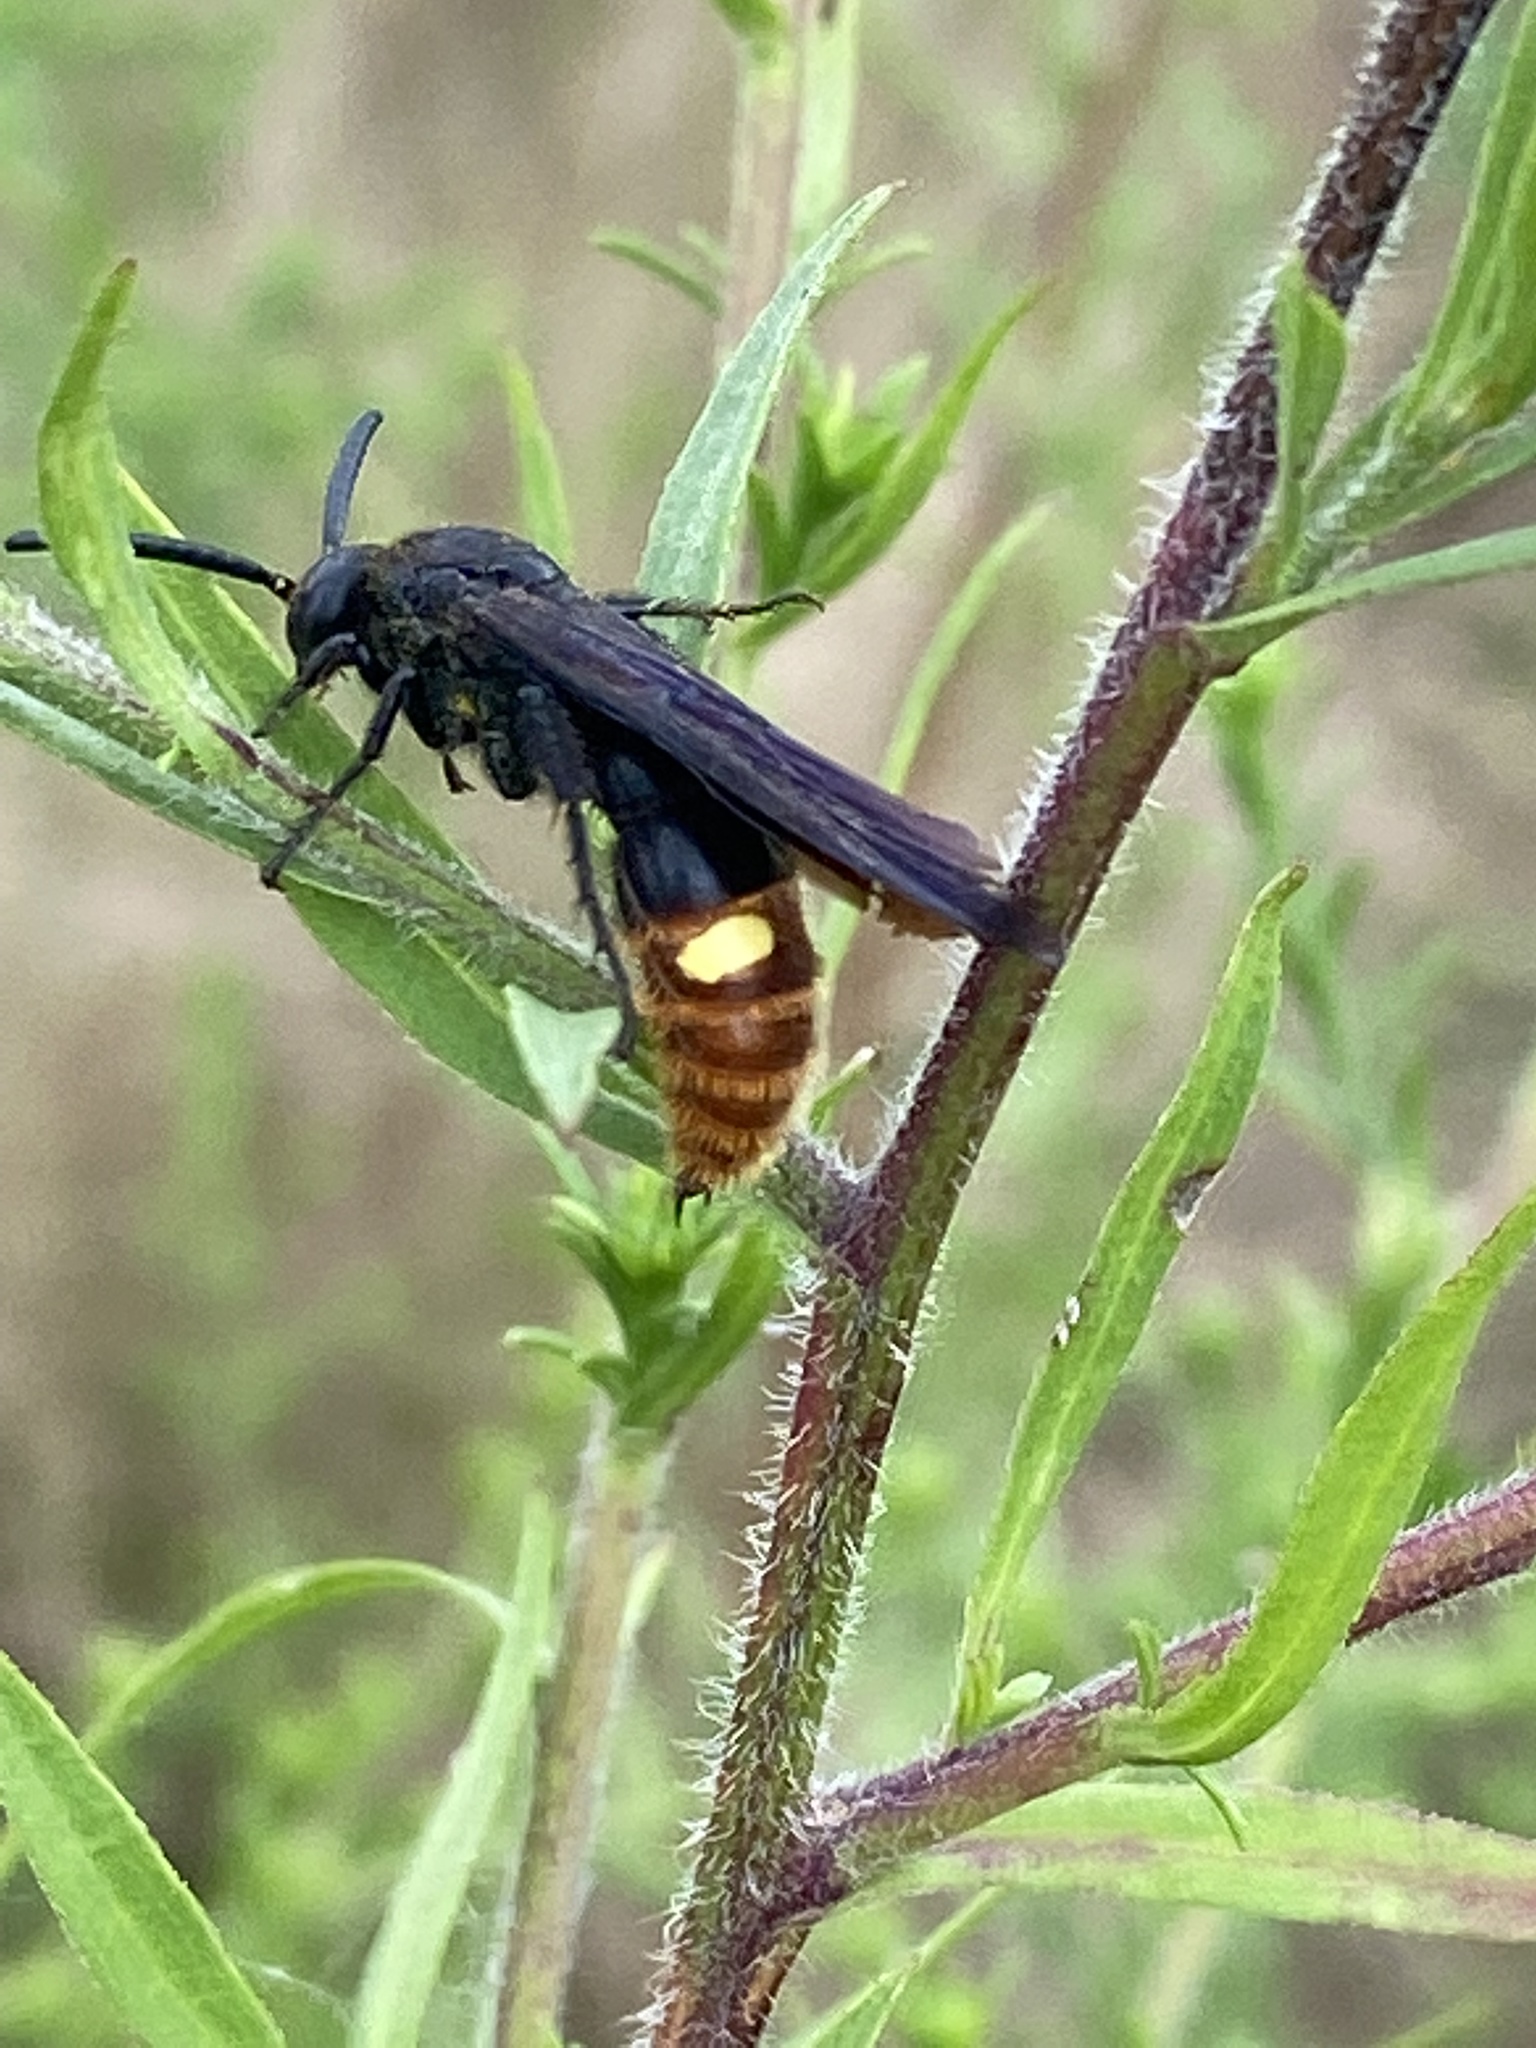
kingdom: Animalia
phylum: Arthropoda
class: Insecta
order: Hymenoptera
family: Scoliidae
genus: Scolia
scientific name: Scolia dubia
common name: Blue-winged scoliid wasp
